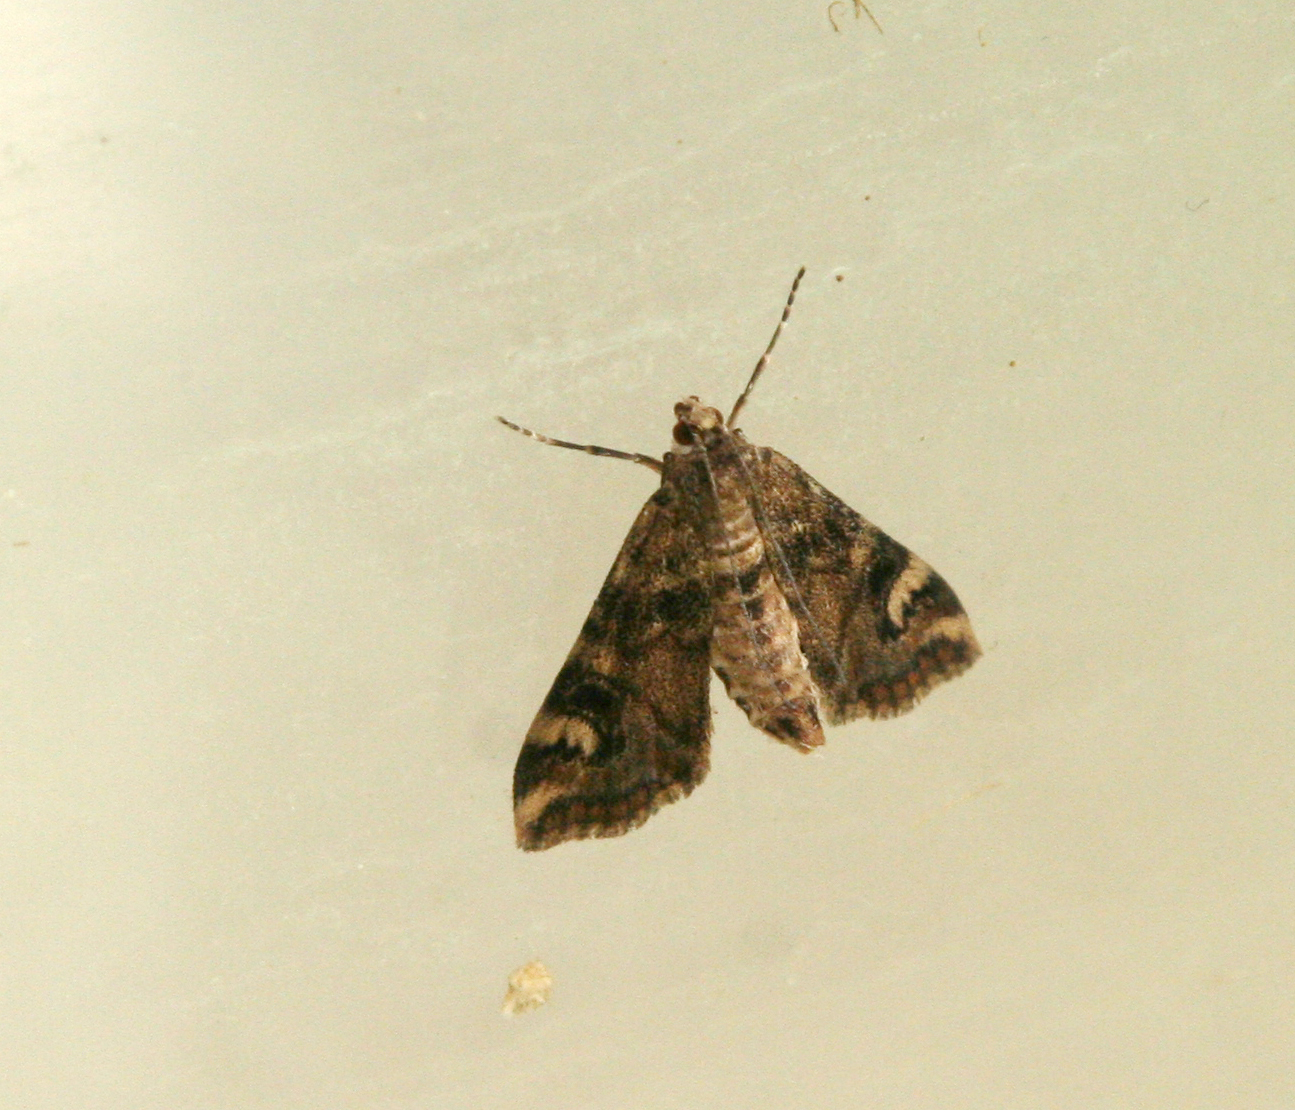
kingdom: Animalia
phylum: Arthropoda
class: Insecta
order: Lepidoptera
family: Crambidae
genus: Cataclysta
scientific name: Cataclysta lemnata
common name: Small china-mark
